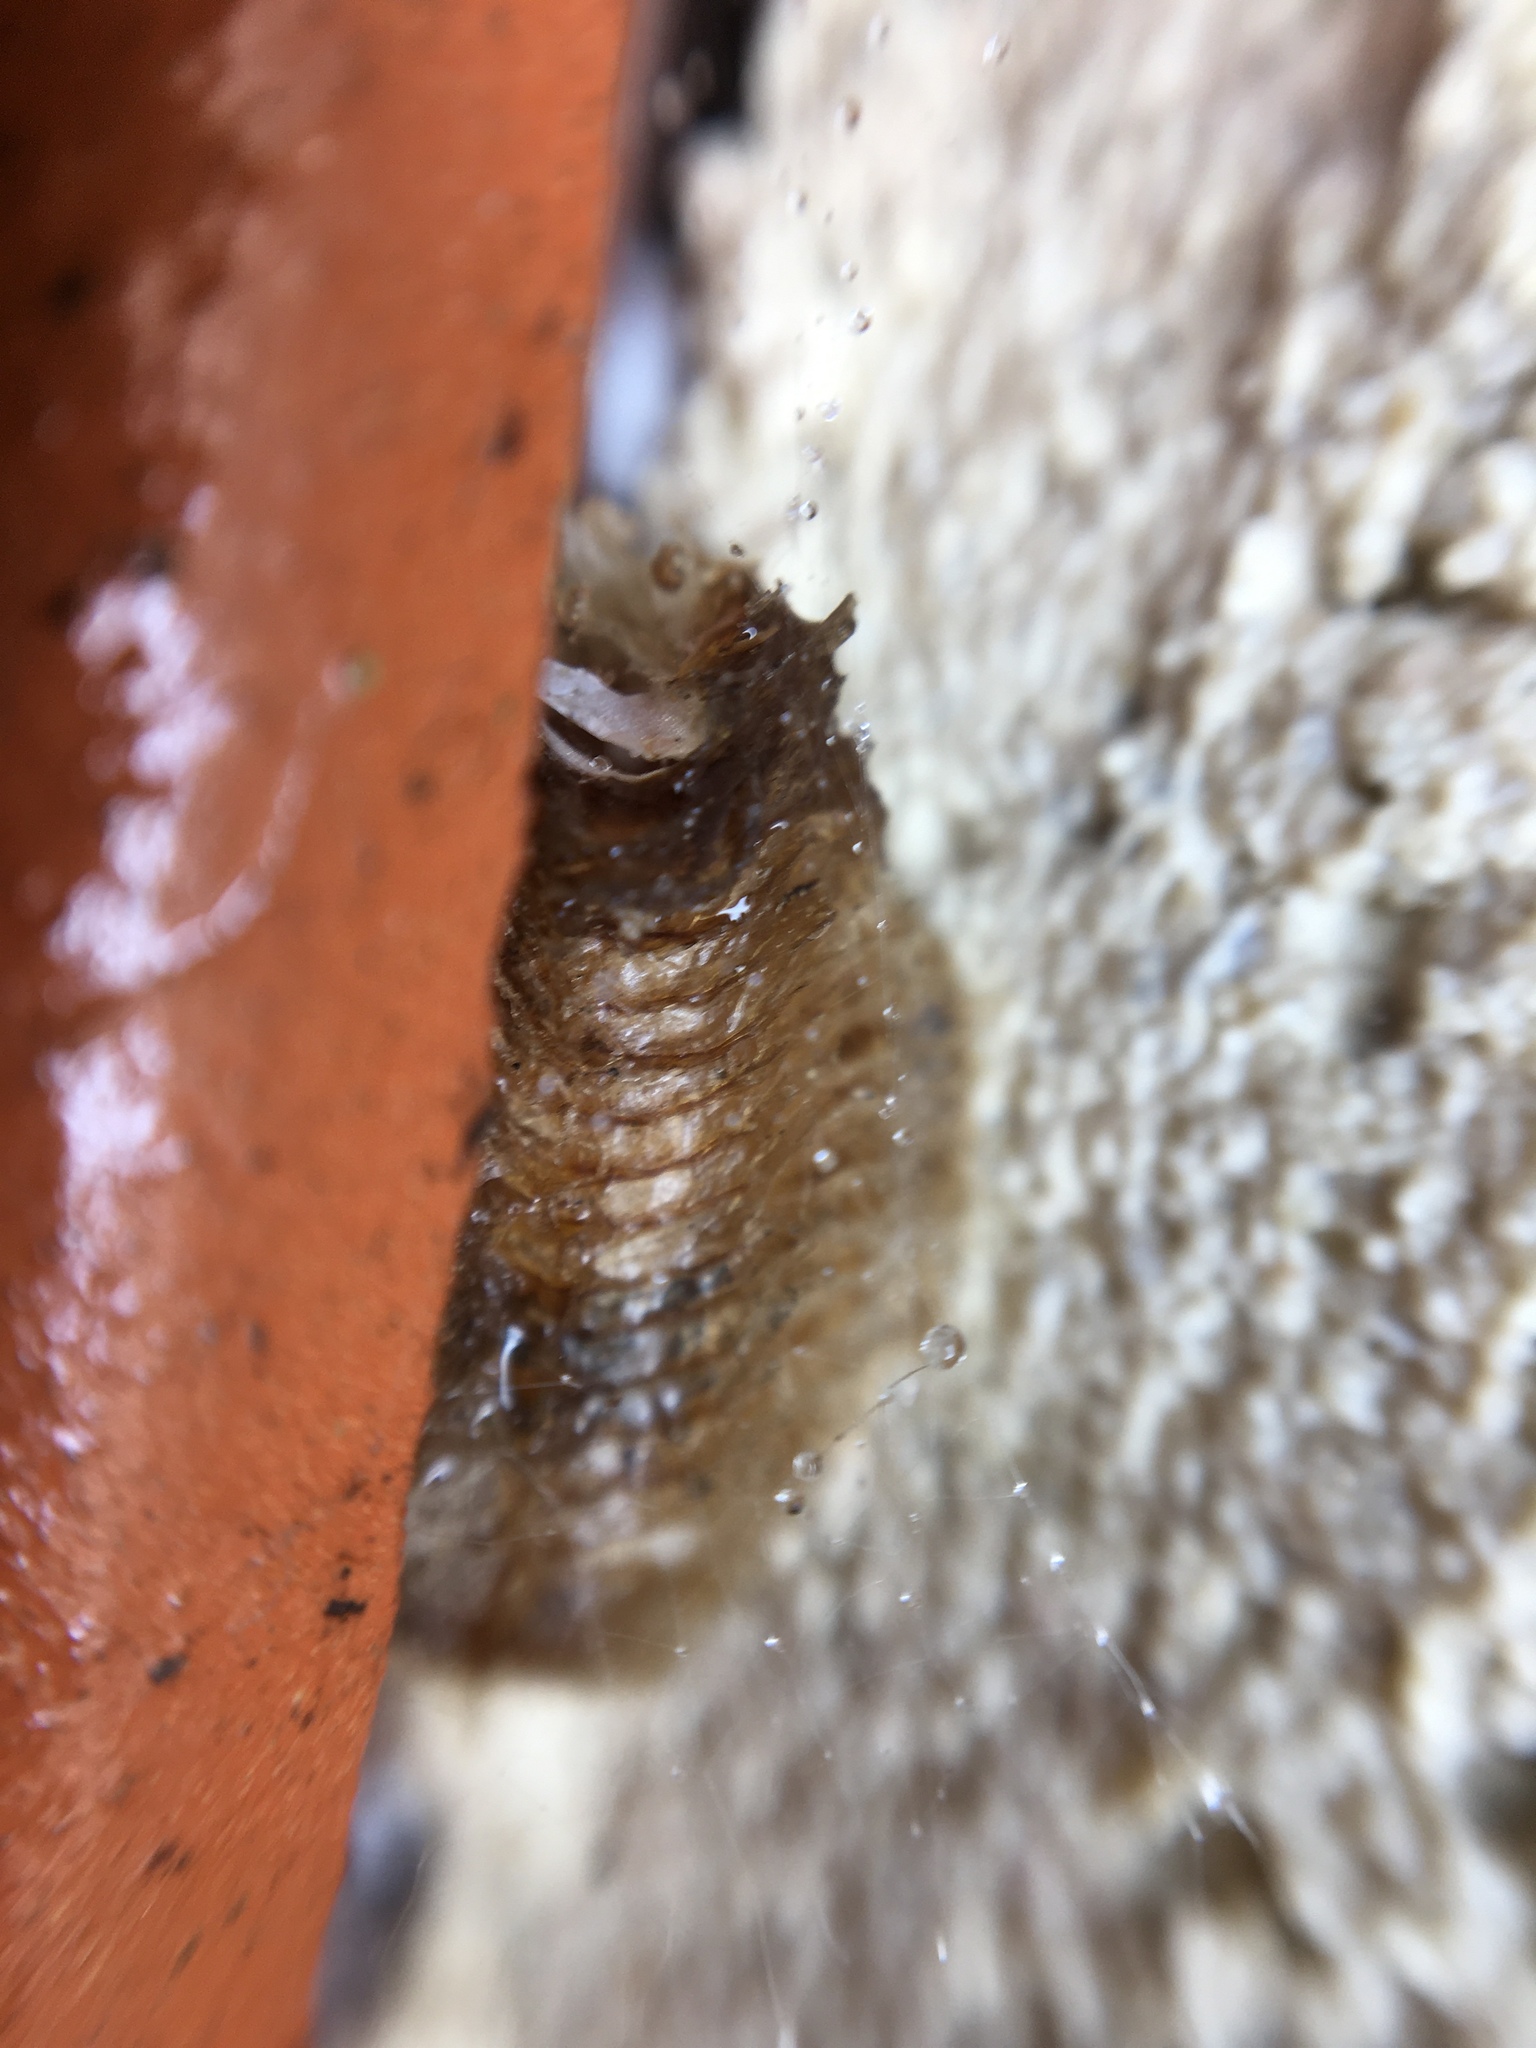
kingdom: Animalia
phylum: Arthropoda
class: Insecta
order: Mantodea
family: Mantidae
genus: Mantis
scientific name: Mantis religiosa
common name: Praying mantis
